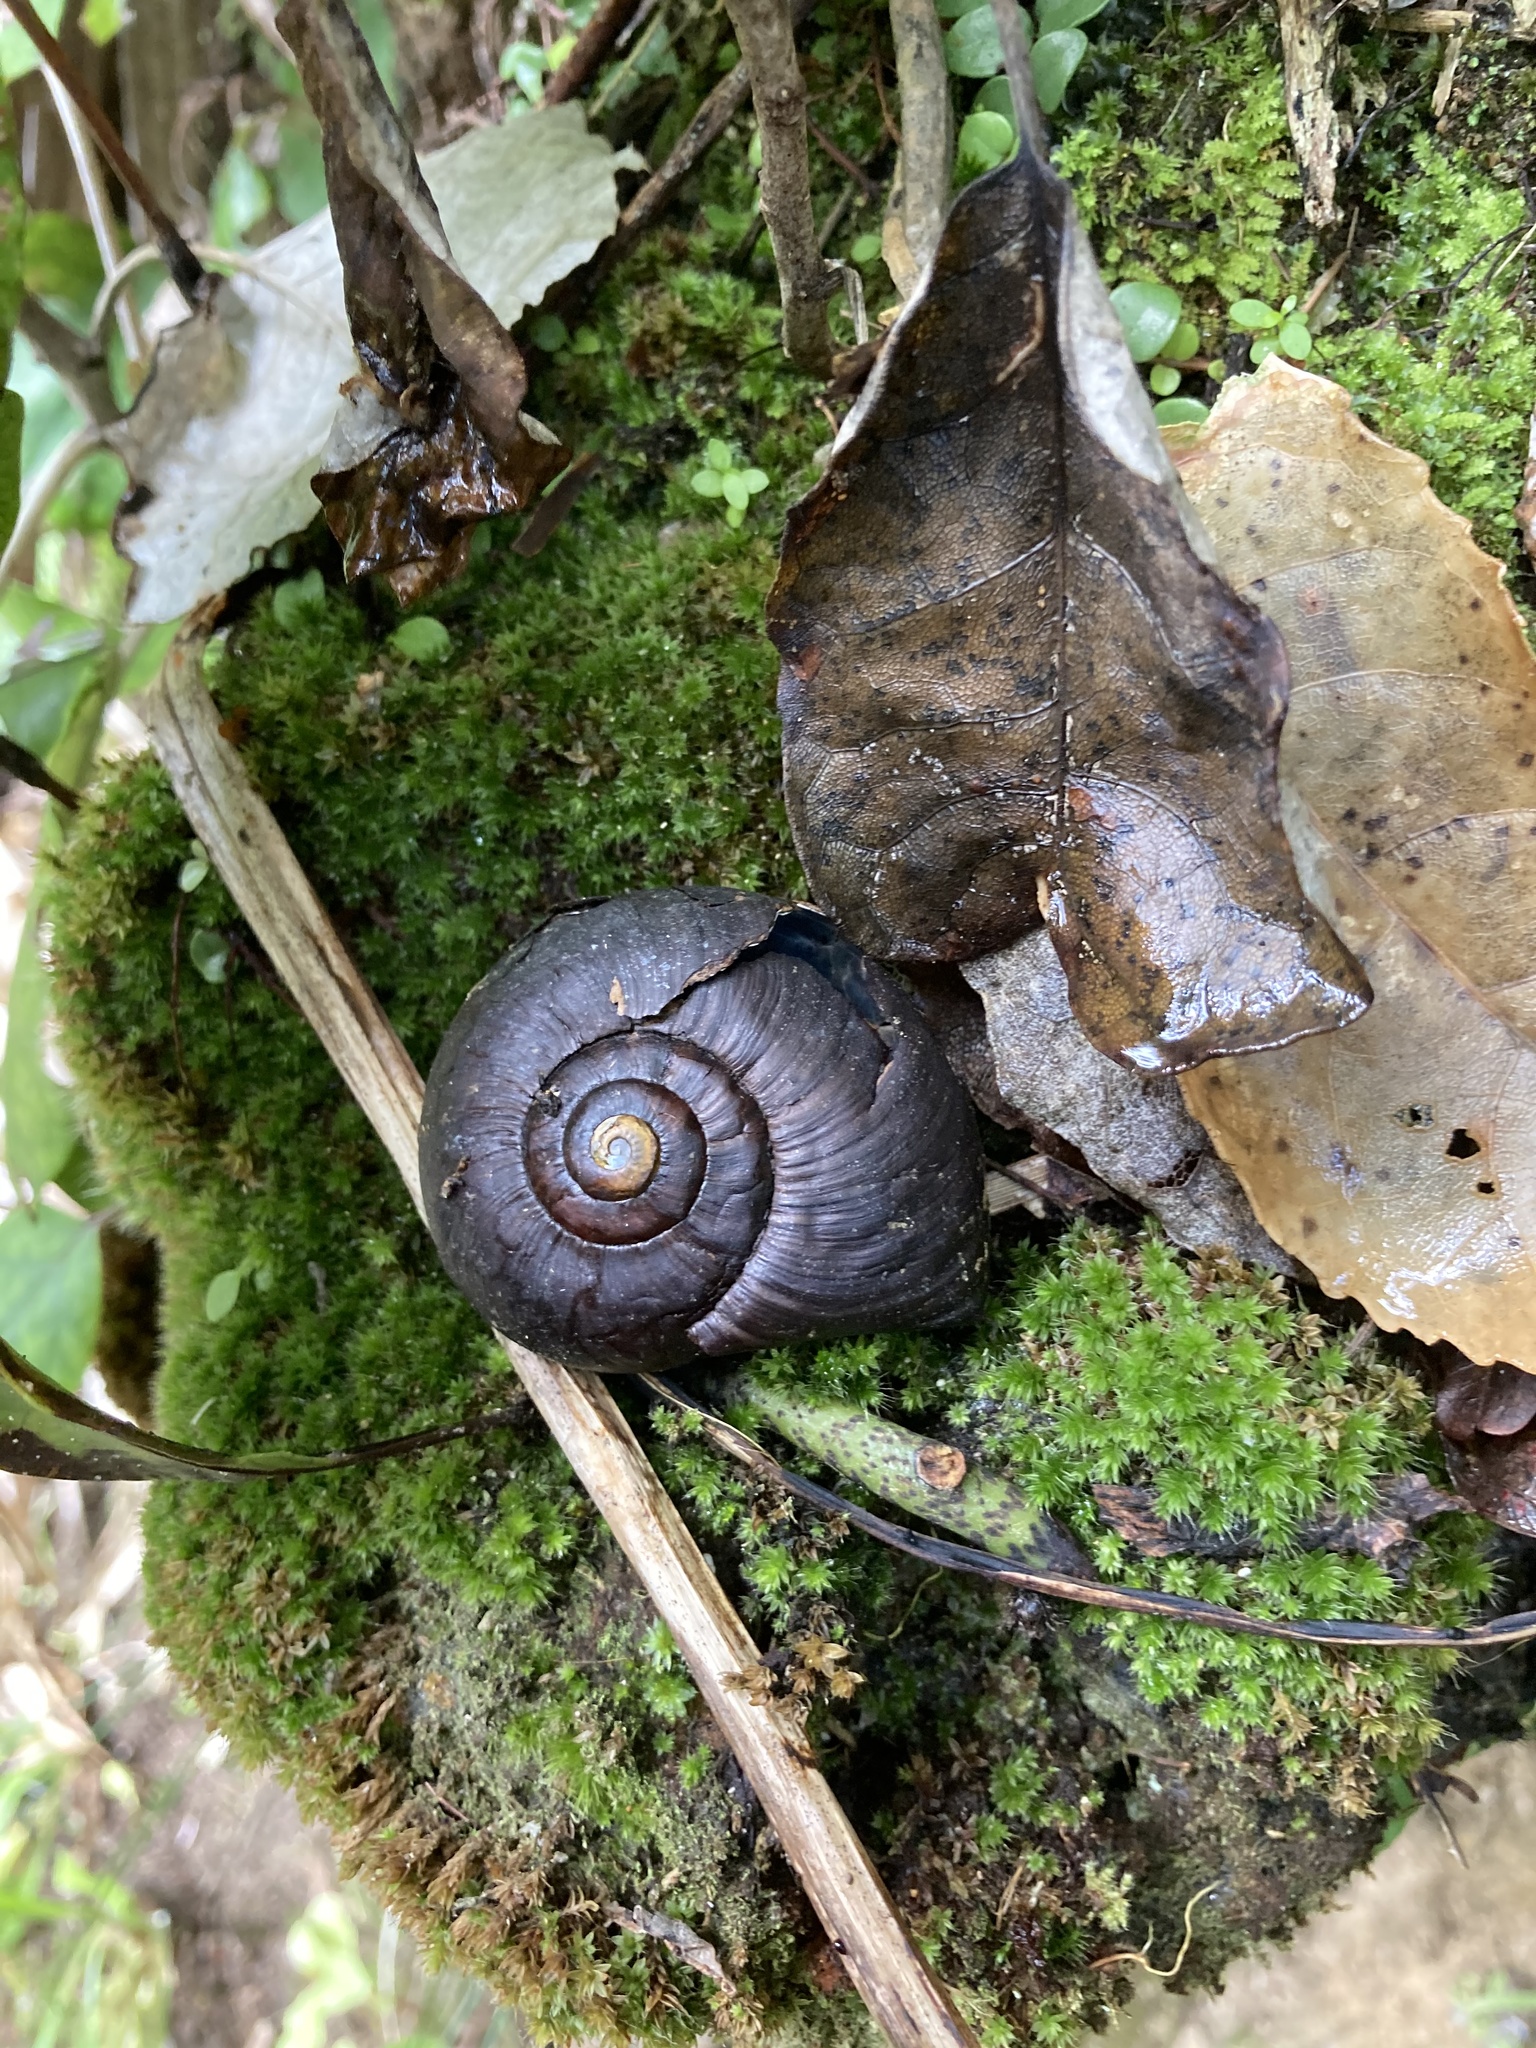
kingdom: Animalia
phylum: Mollusca
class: Gastropoda
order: Stylommatophora
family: Rhytididae
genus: Powelliphanta
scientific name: Powelliphanta annectens
